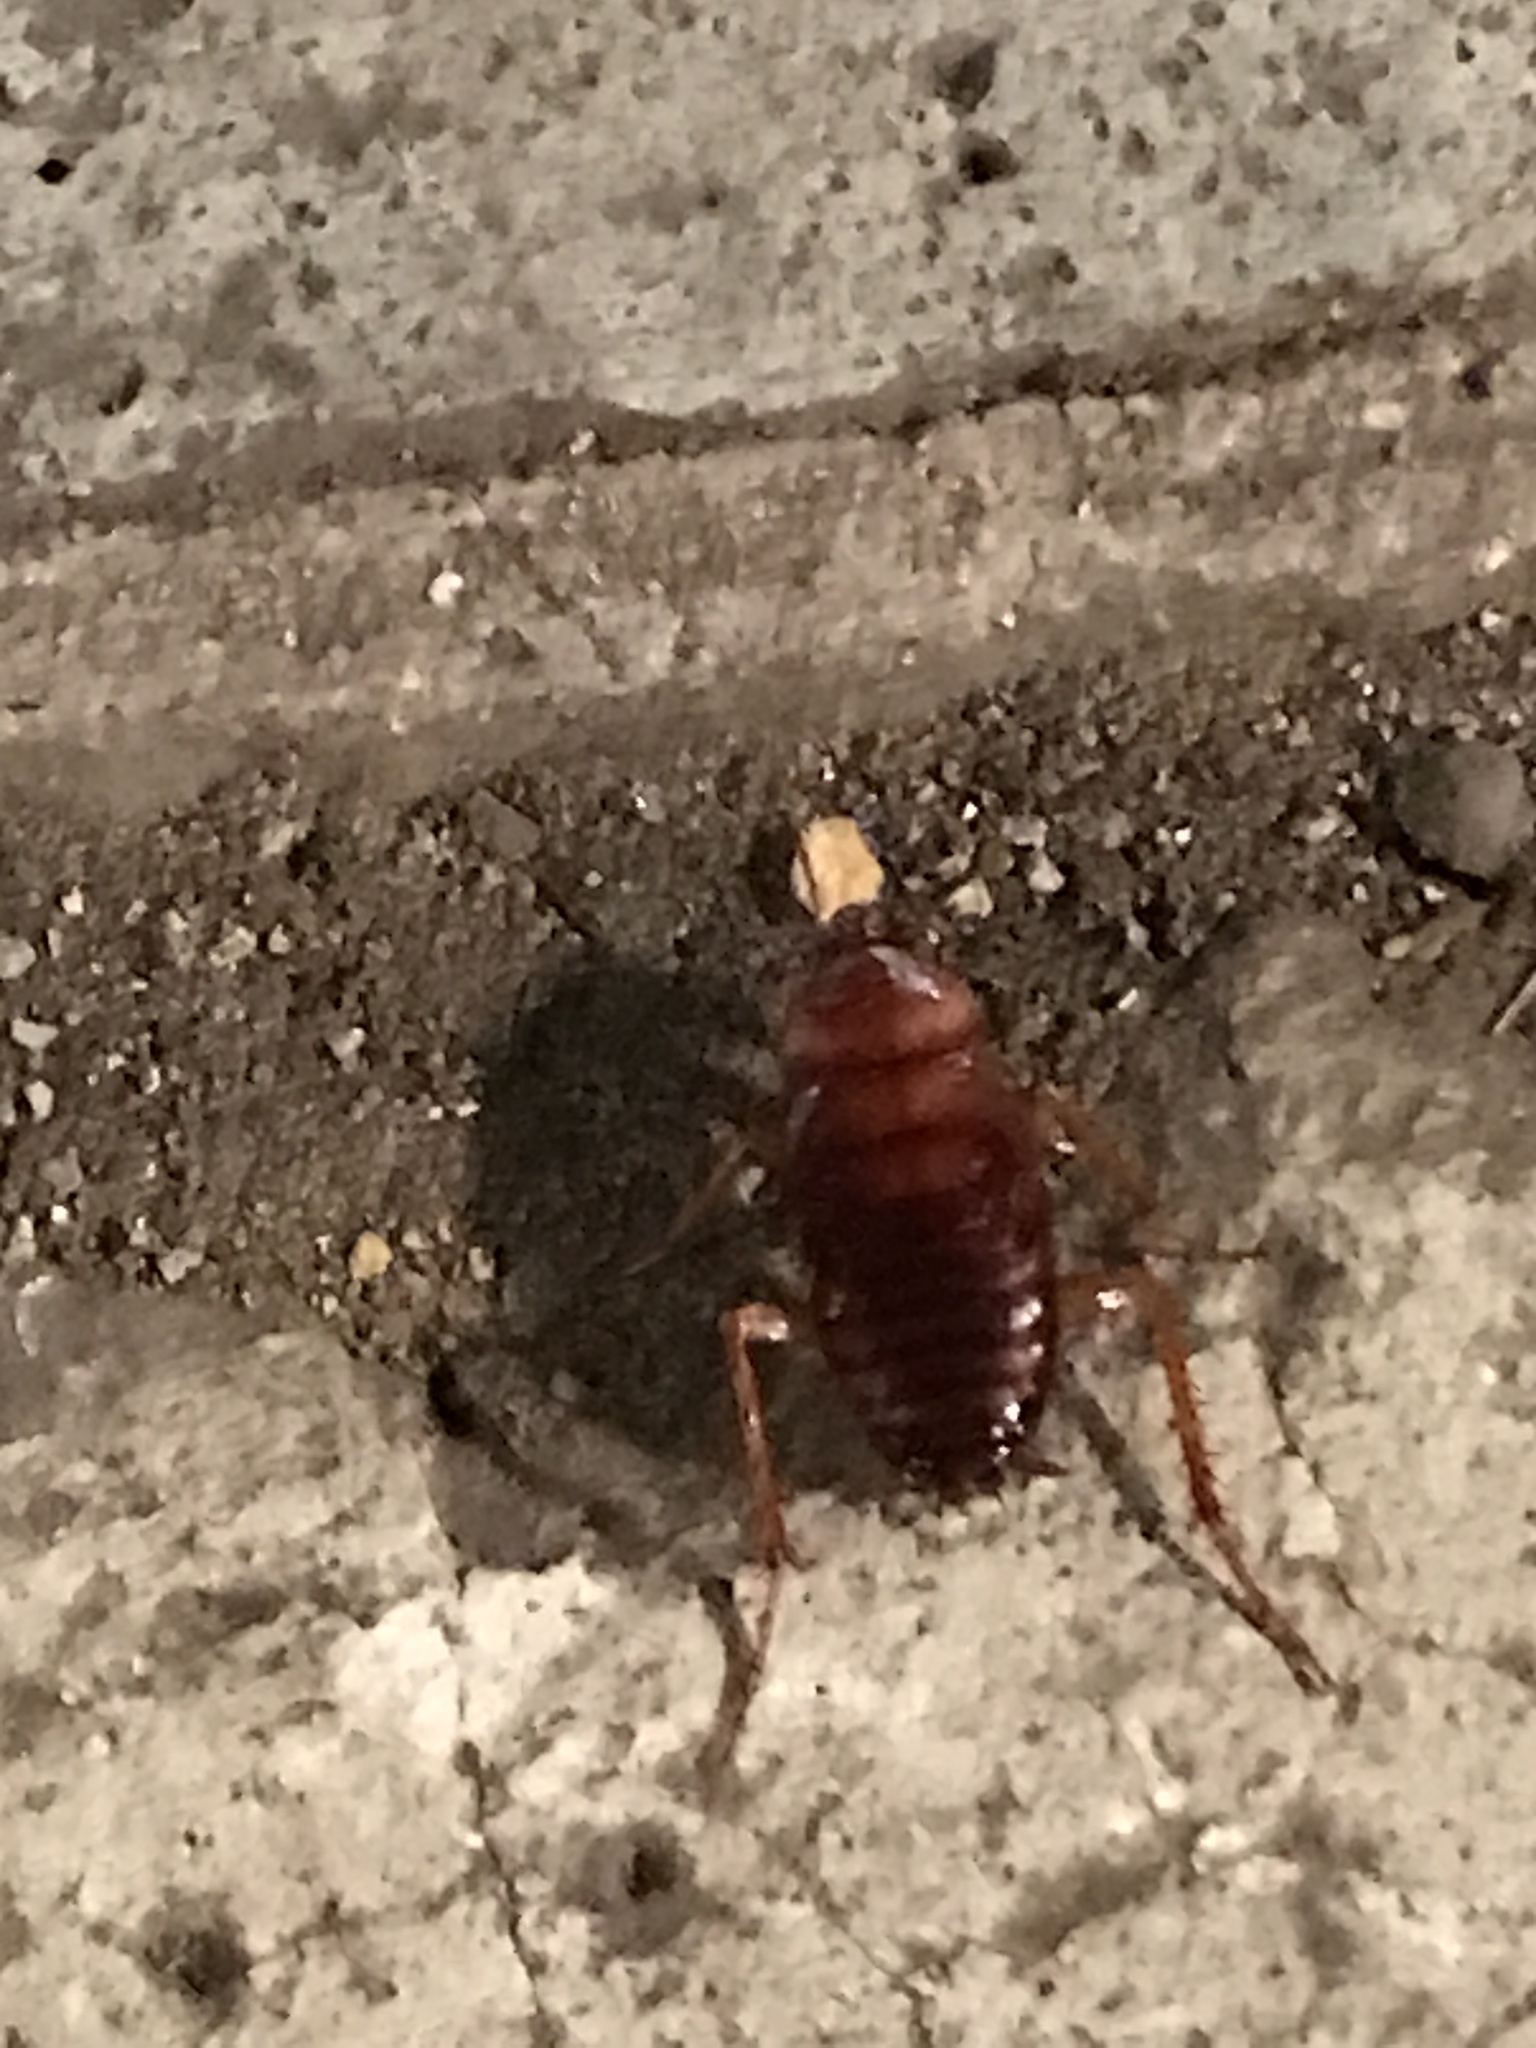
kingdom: Animalia
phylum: Arthropoda
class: Insecta
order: Blattodea
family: Blattidae
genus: Periplaneta
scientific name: Periplaneta americana
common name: American cockroach
